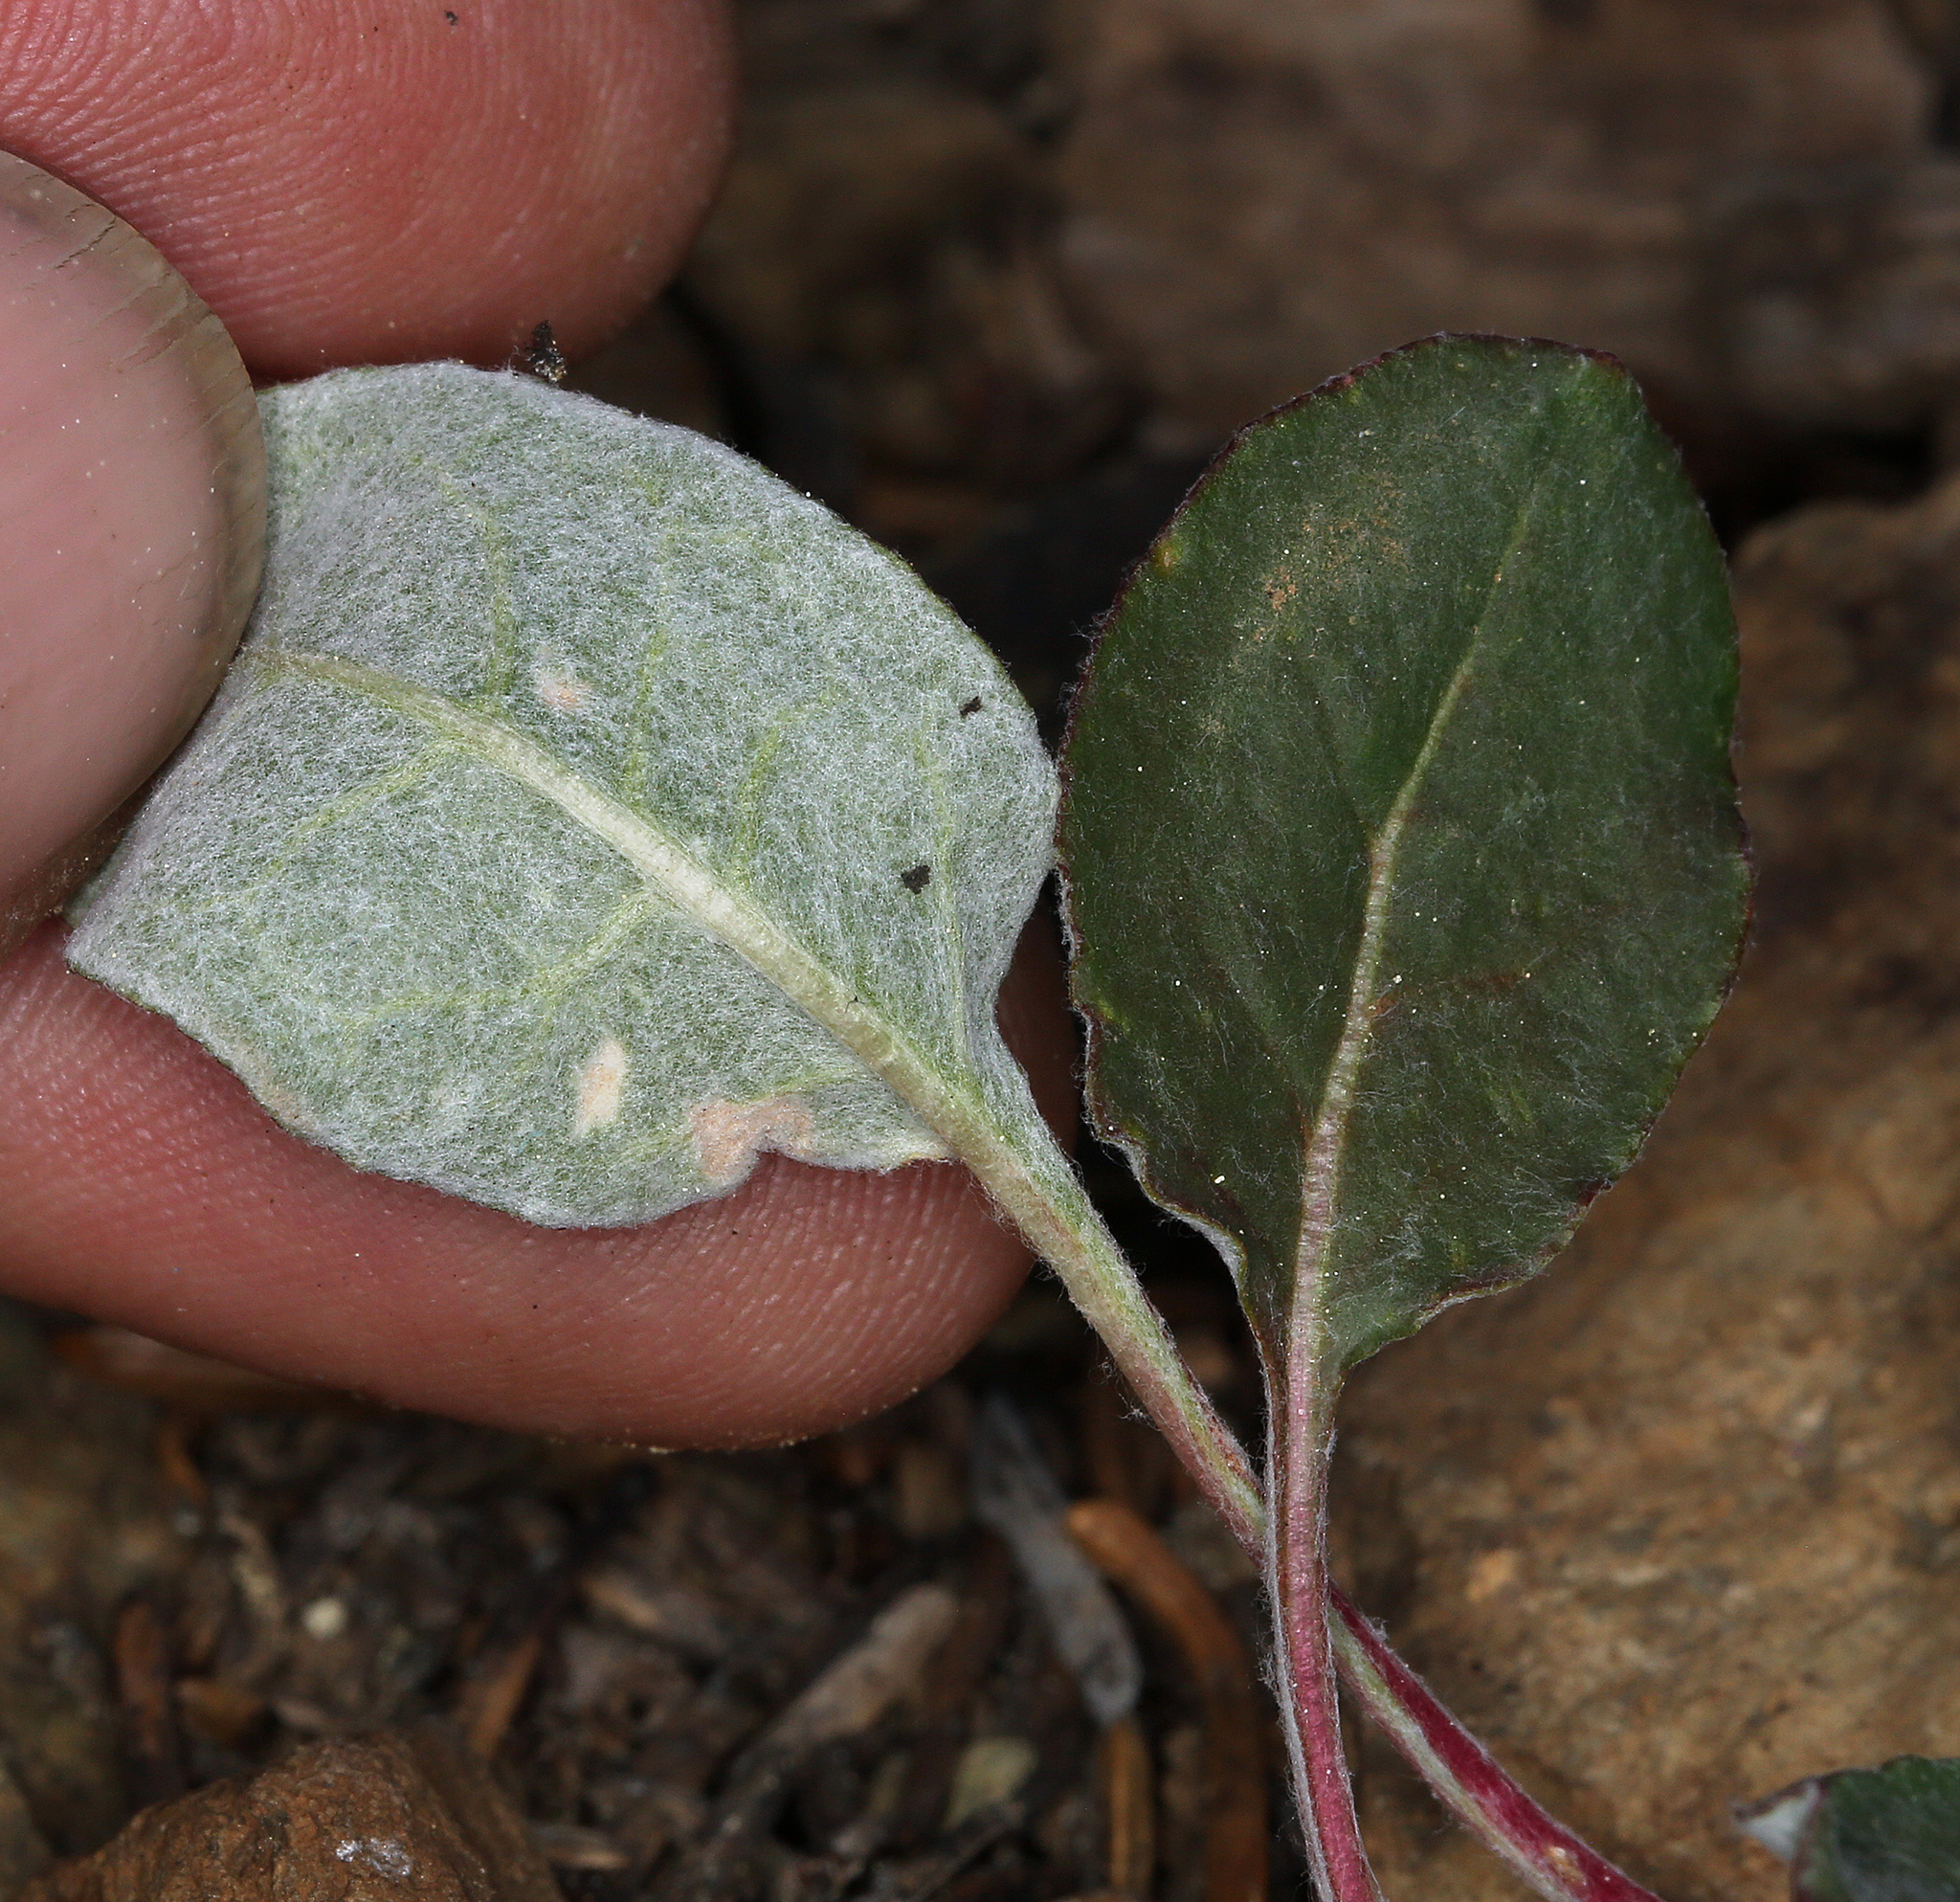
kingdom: Plantae
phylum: Tracheophyta
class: Magnoliopsida
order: Caryophyllales
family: Polygonaceae
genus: Eriogonum
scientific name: Eriogonum nudum
